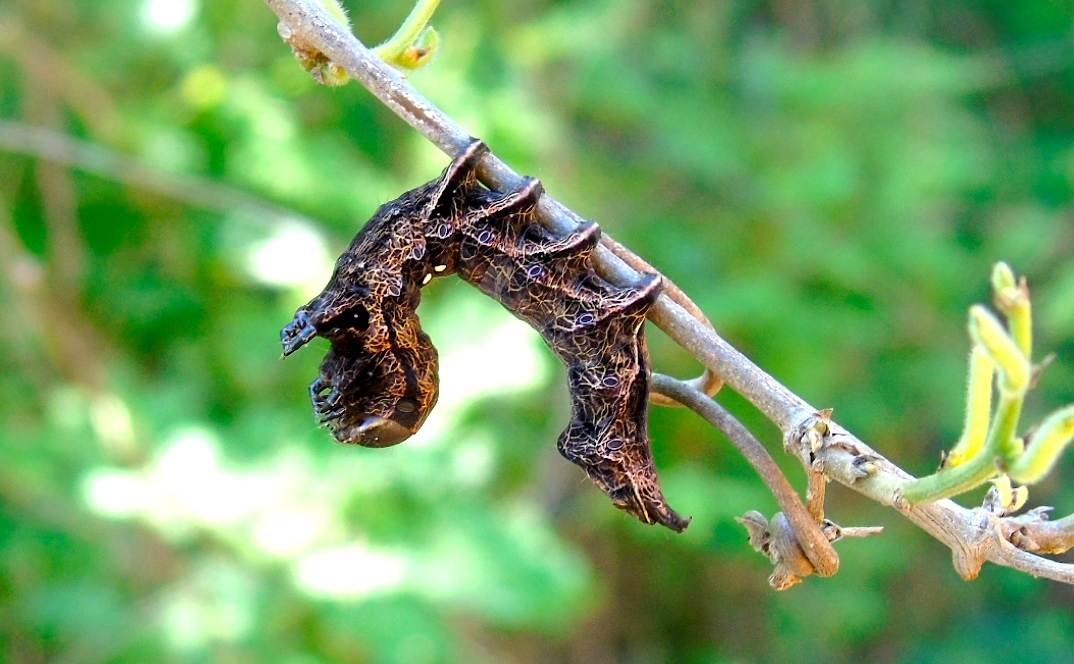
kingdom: Animalia
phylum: Arthropoda
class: Insecta
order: Lepidoptera
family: Notodontidae
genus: Crinodes
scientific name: Crinodes
